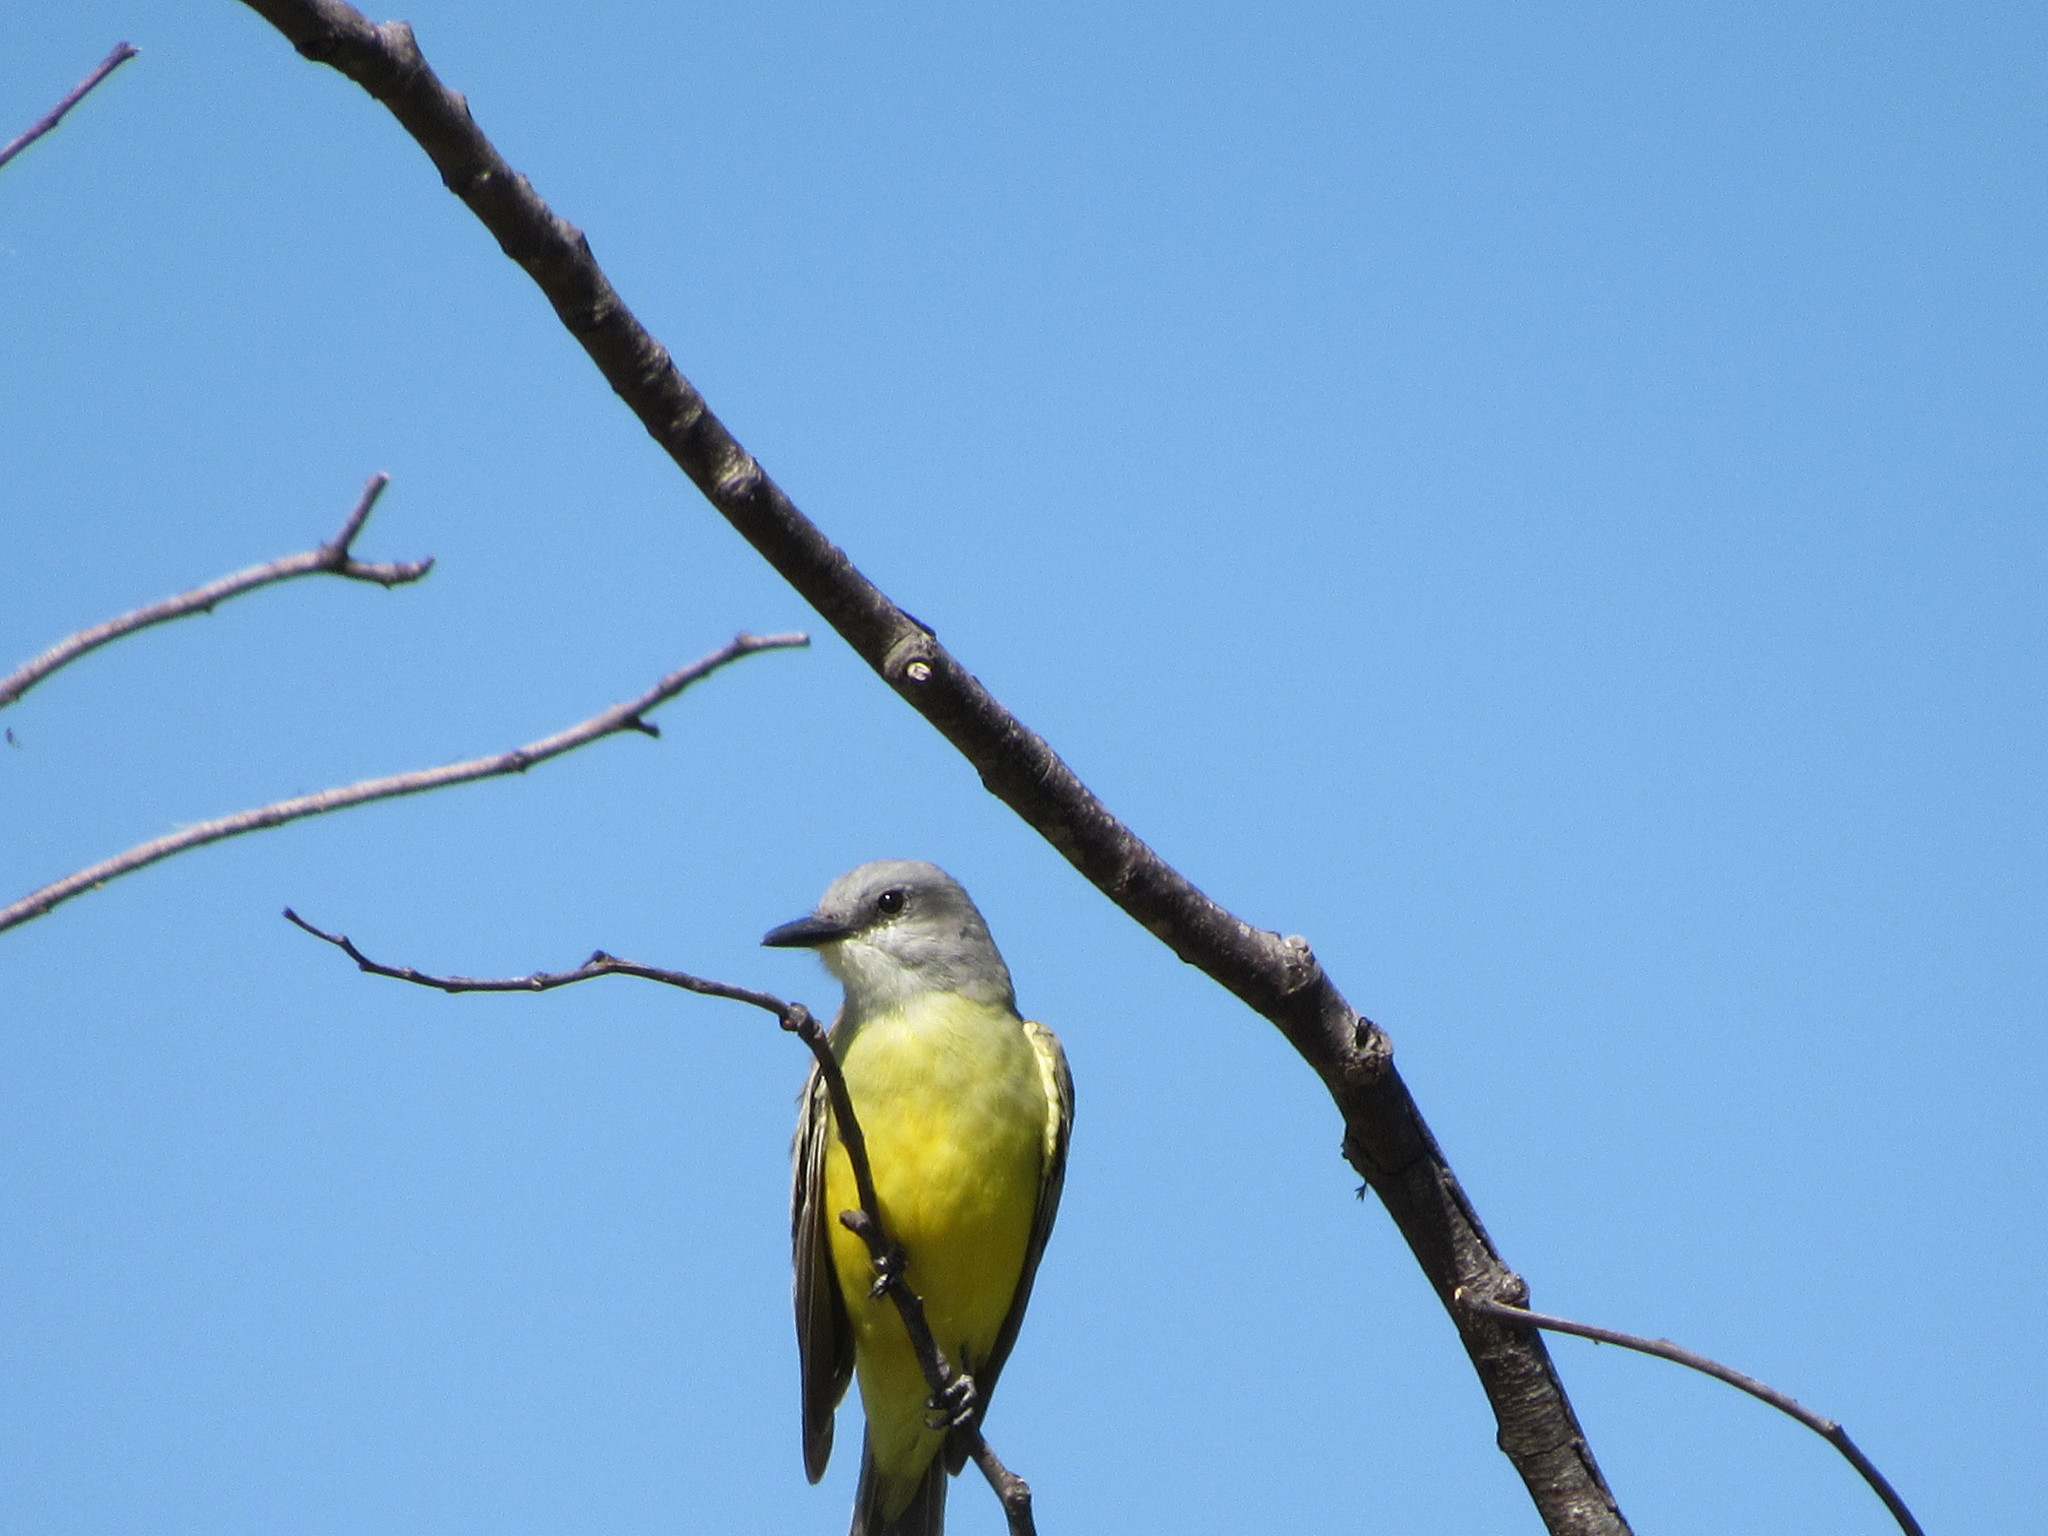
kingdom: Animalia
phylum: Chordata
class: Aves
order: Passeriformes
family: Tyrannidae
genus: Tyrannus
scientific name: Tyrannus melancholicus
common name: Tropical kingbird
